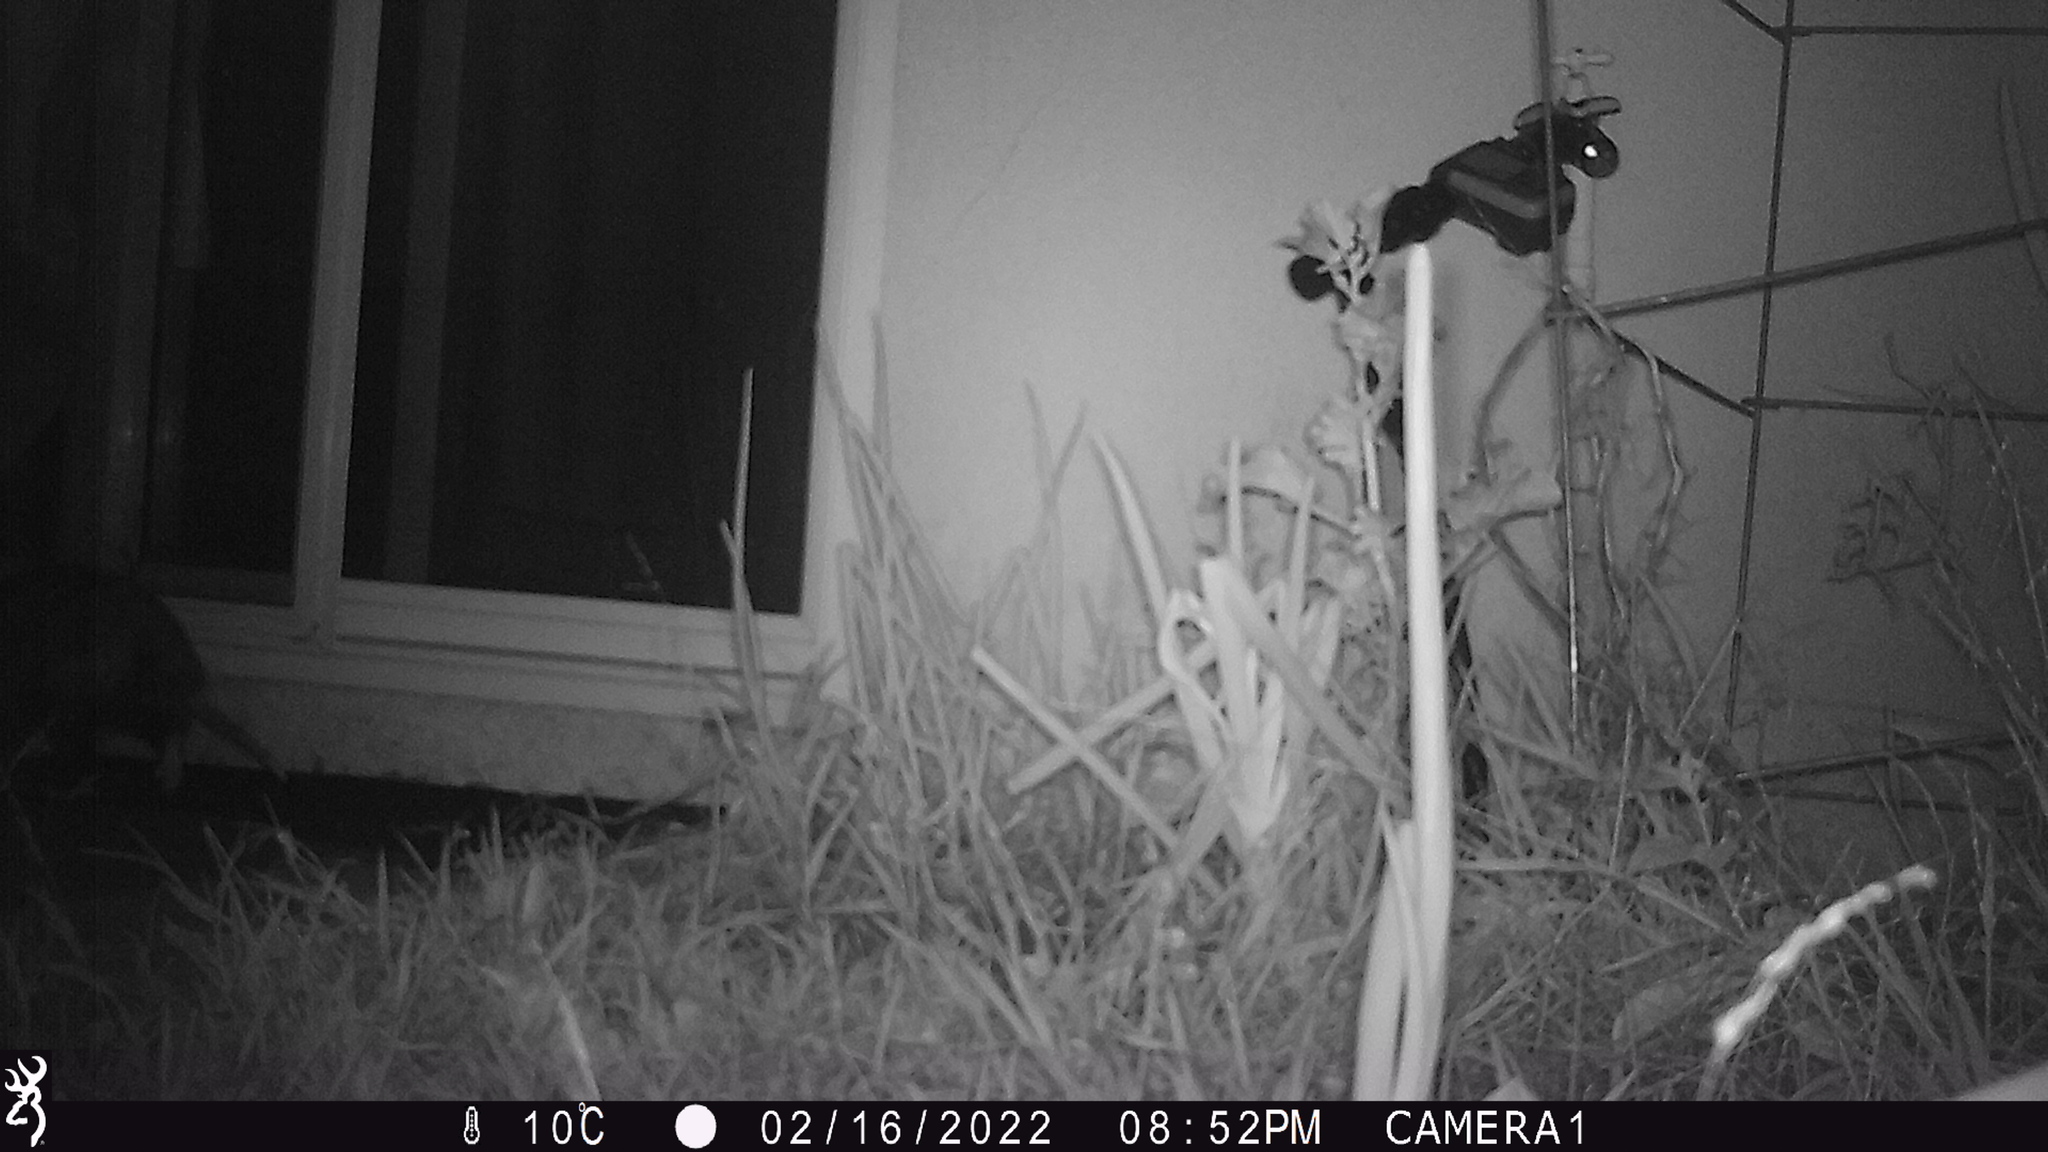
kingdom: Animalia
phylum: Chordata
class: Mammalia
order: Didelphimorphia
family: Didelphidae
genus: Didelphis
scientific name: Didelphis virginiana
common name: Virginia opossum
